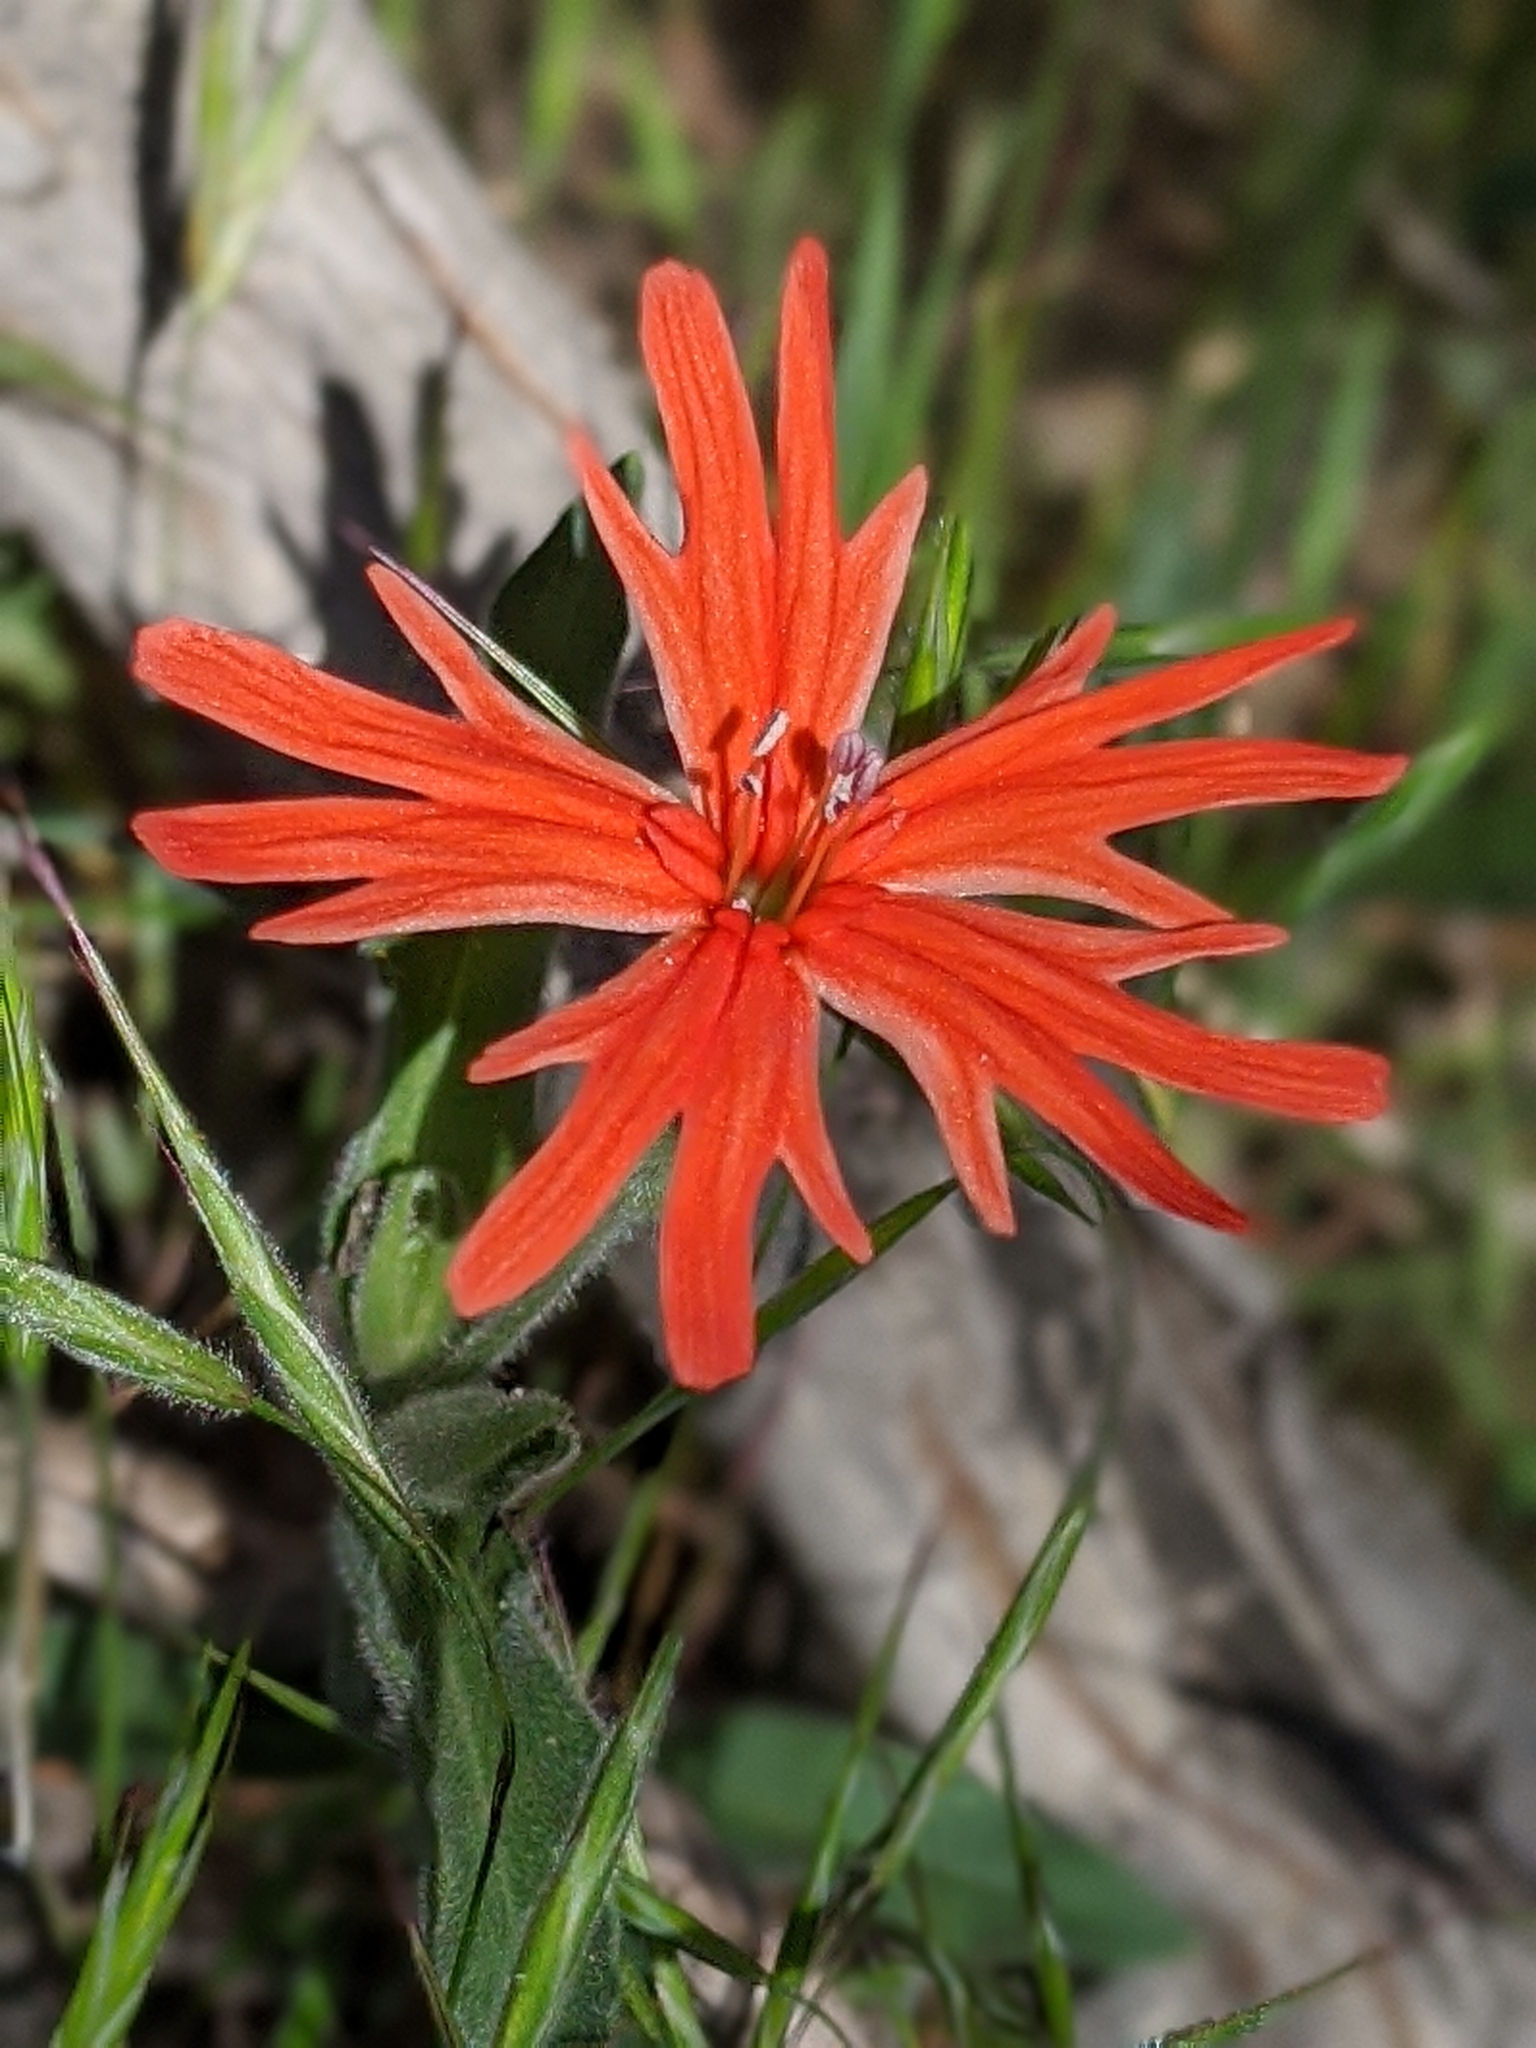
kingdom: Plantae
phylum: Tracheophyta
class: Magnoliopsida
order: Caryophyllales
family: Caryophyllaceae
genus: Silene
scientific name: Silene laciniata
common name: Indian-pink
